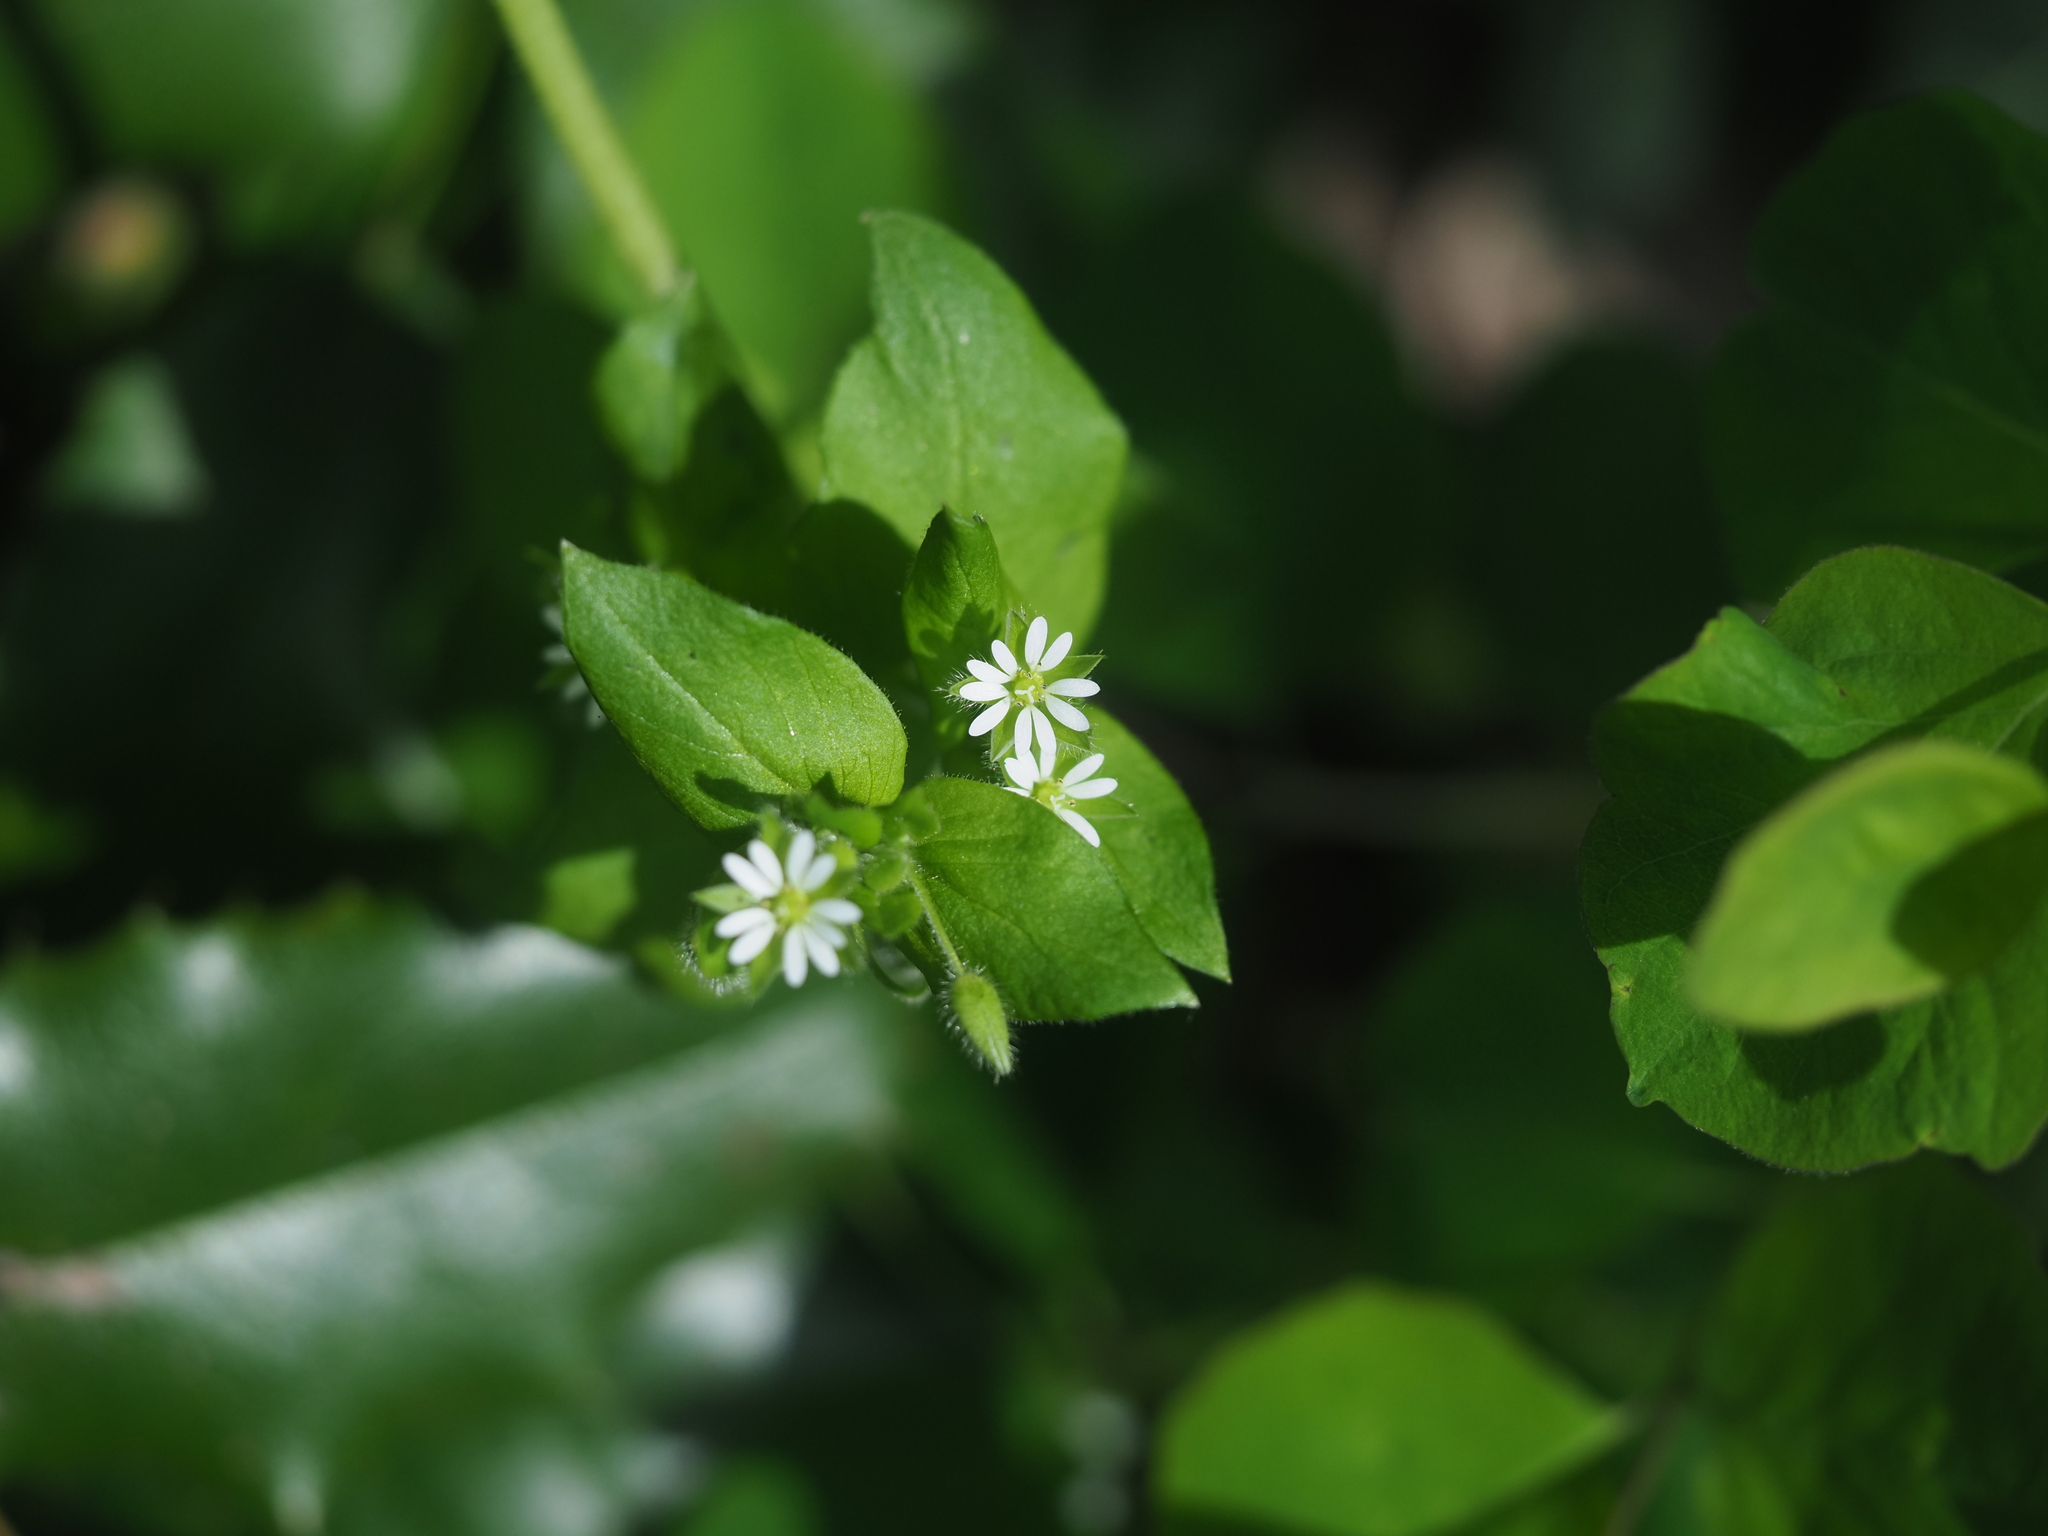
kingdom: Plantae
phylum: Tracheophyta
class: Magnoliopsida
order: Caryophyllales
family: Caryophyllaceae
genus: Stellaria
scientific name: Stellaria media
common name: Common chickweed
